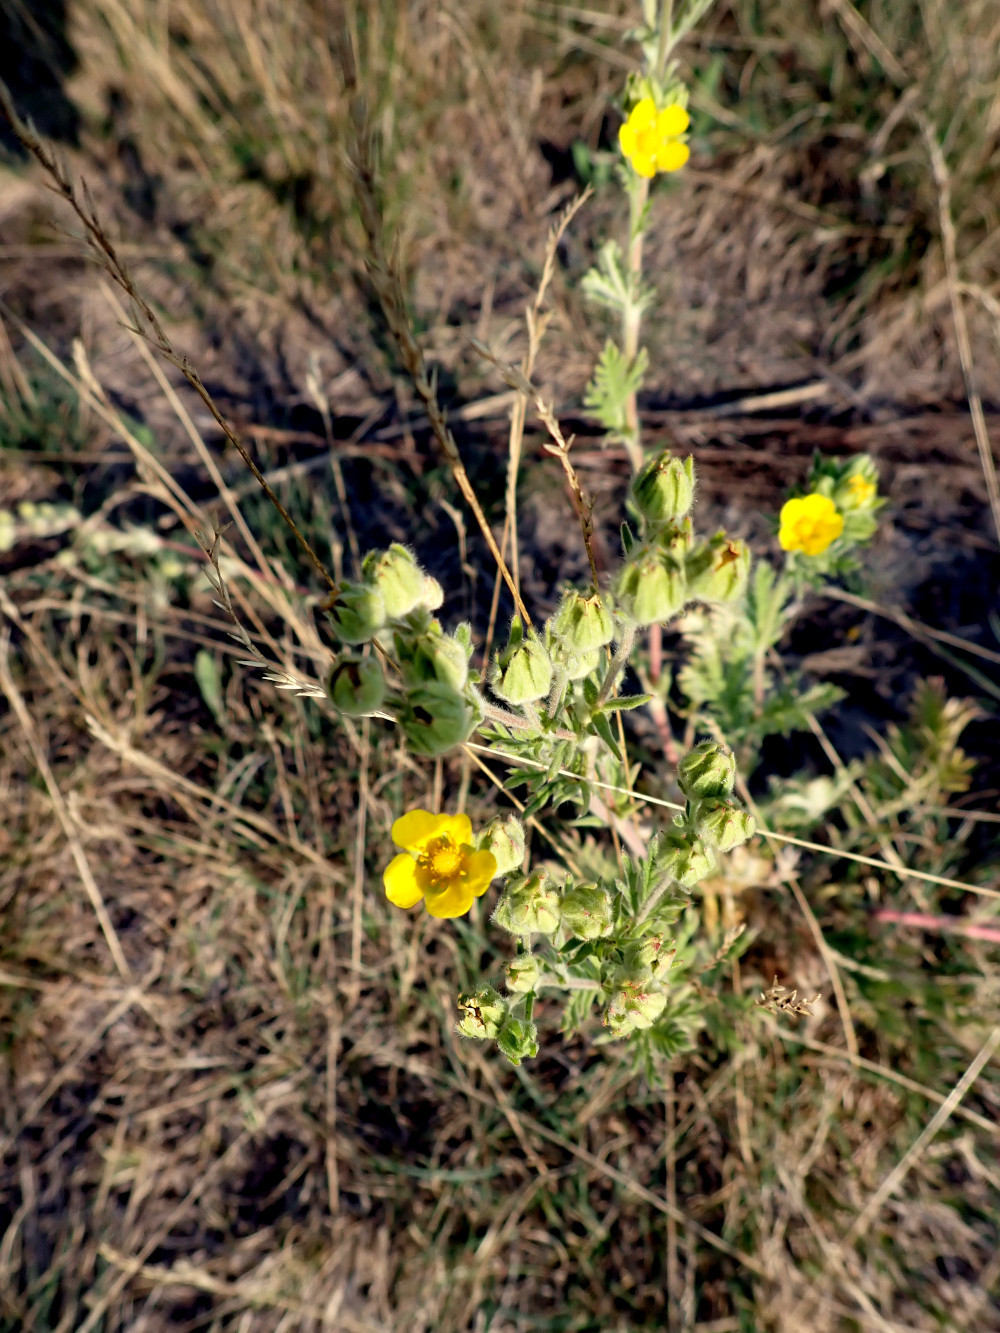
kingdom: Plantae
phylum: Tracheophyta
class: Magnoliopsida
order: Rosales
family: Rosaceae
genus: Potentilla
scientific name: Potentilla pensylvanica
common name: Pennsylvania cinquefoil
